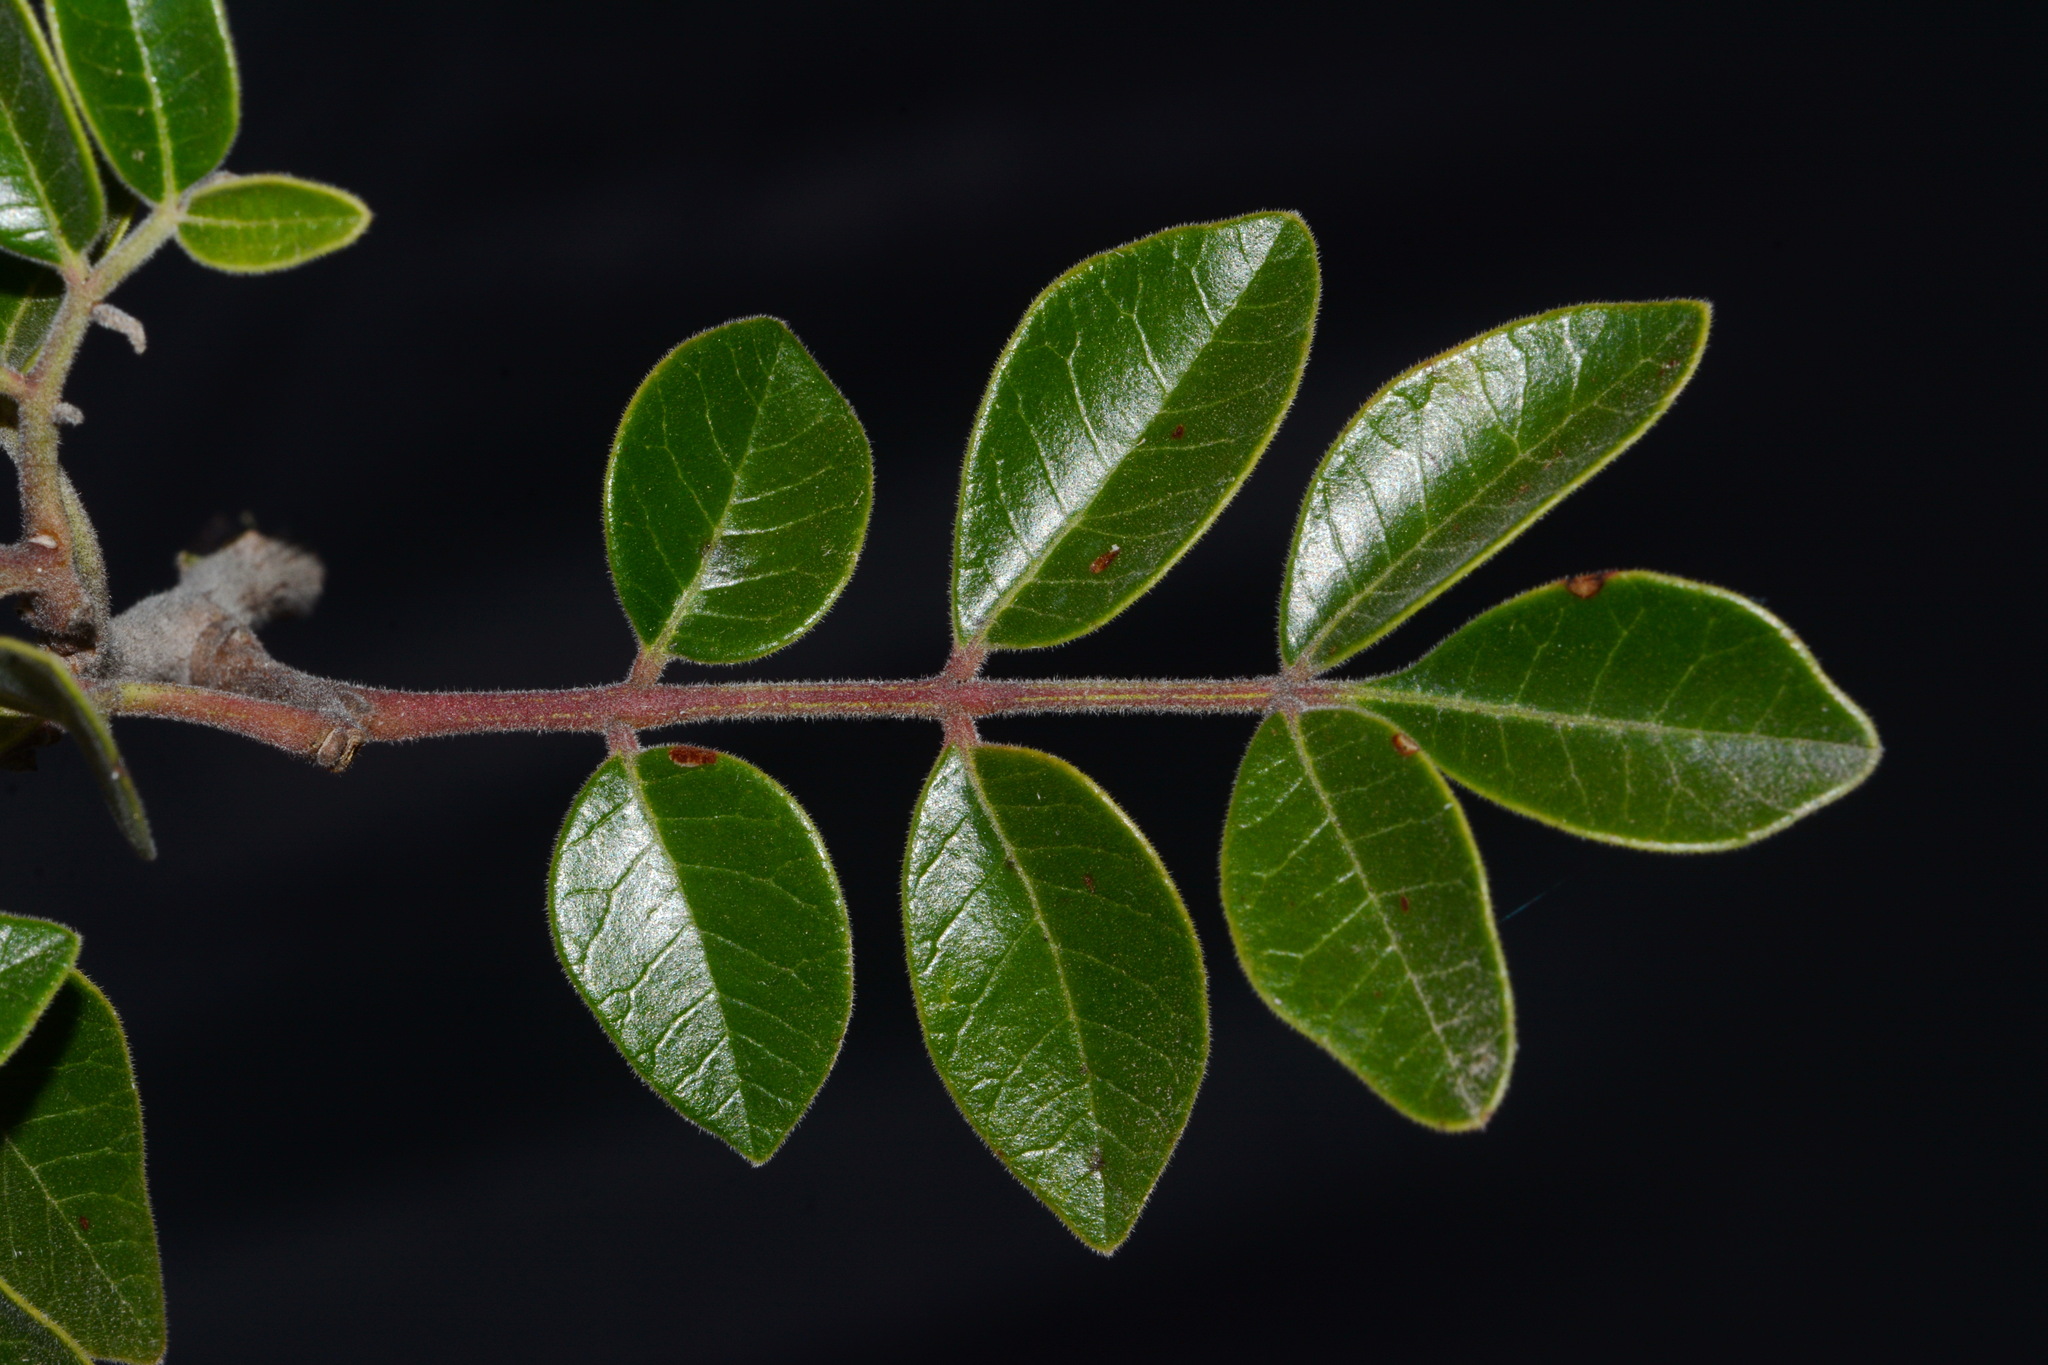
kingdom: Plantae
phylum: Tracheophyta
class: Magnoliopsida
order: Sapindales
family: Anacardiaceae
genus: Rhus
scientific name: Rhus virens
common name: Evergreen sumac
